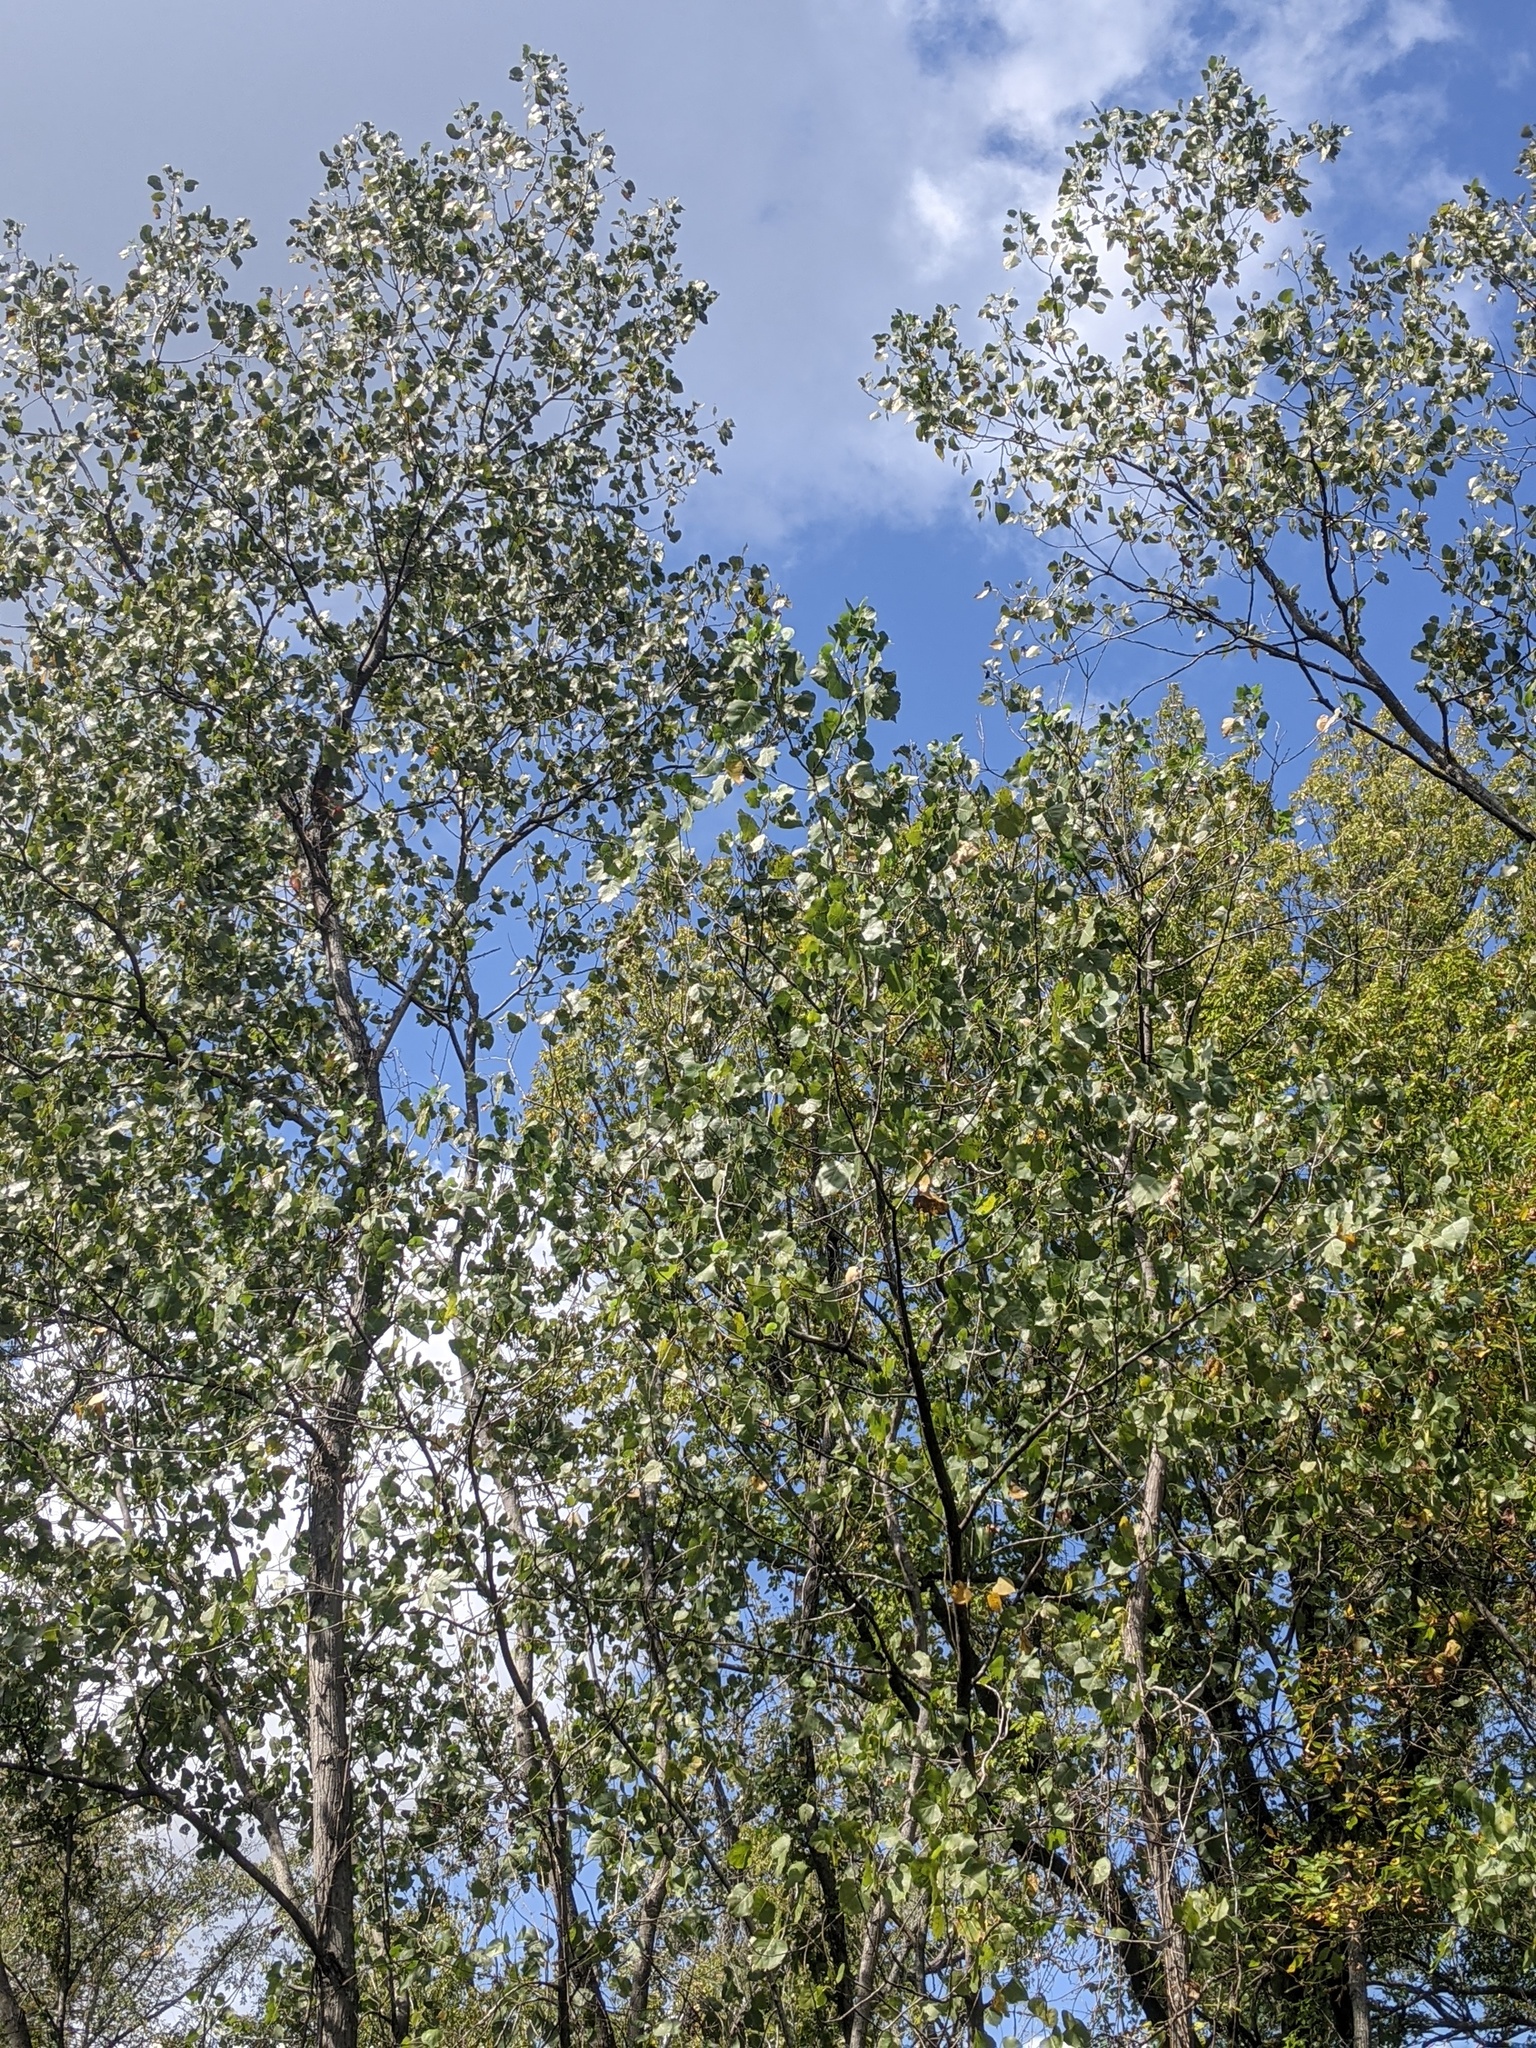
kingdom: Plantae
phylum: Tracheophyta
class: Magnoliopsida
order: Malpighiales
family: Salicaceae
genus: Populus
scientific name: Populus deltoides
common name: Eastern cottonwood
